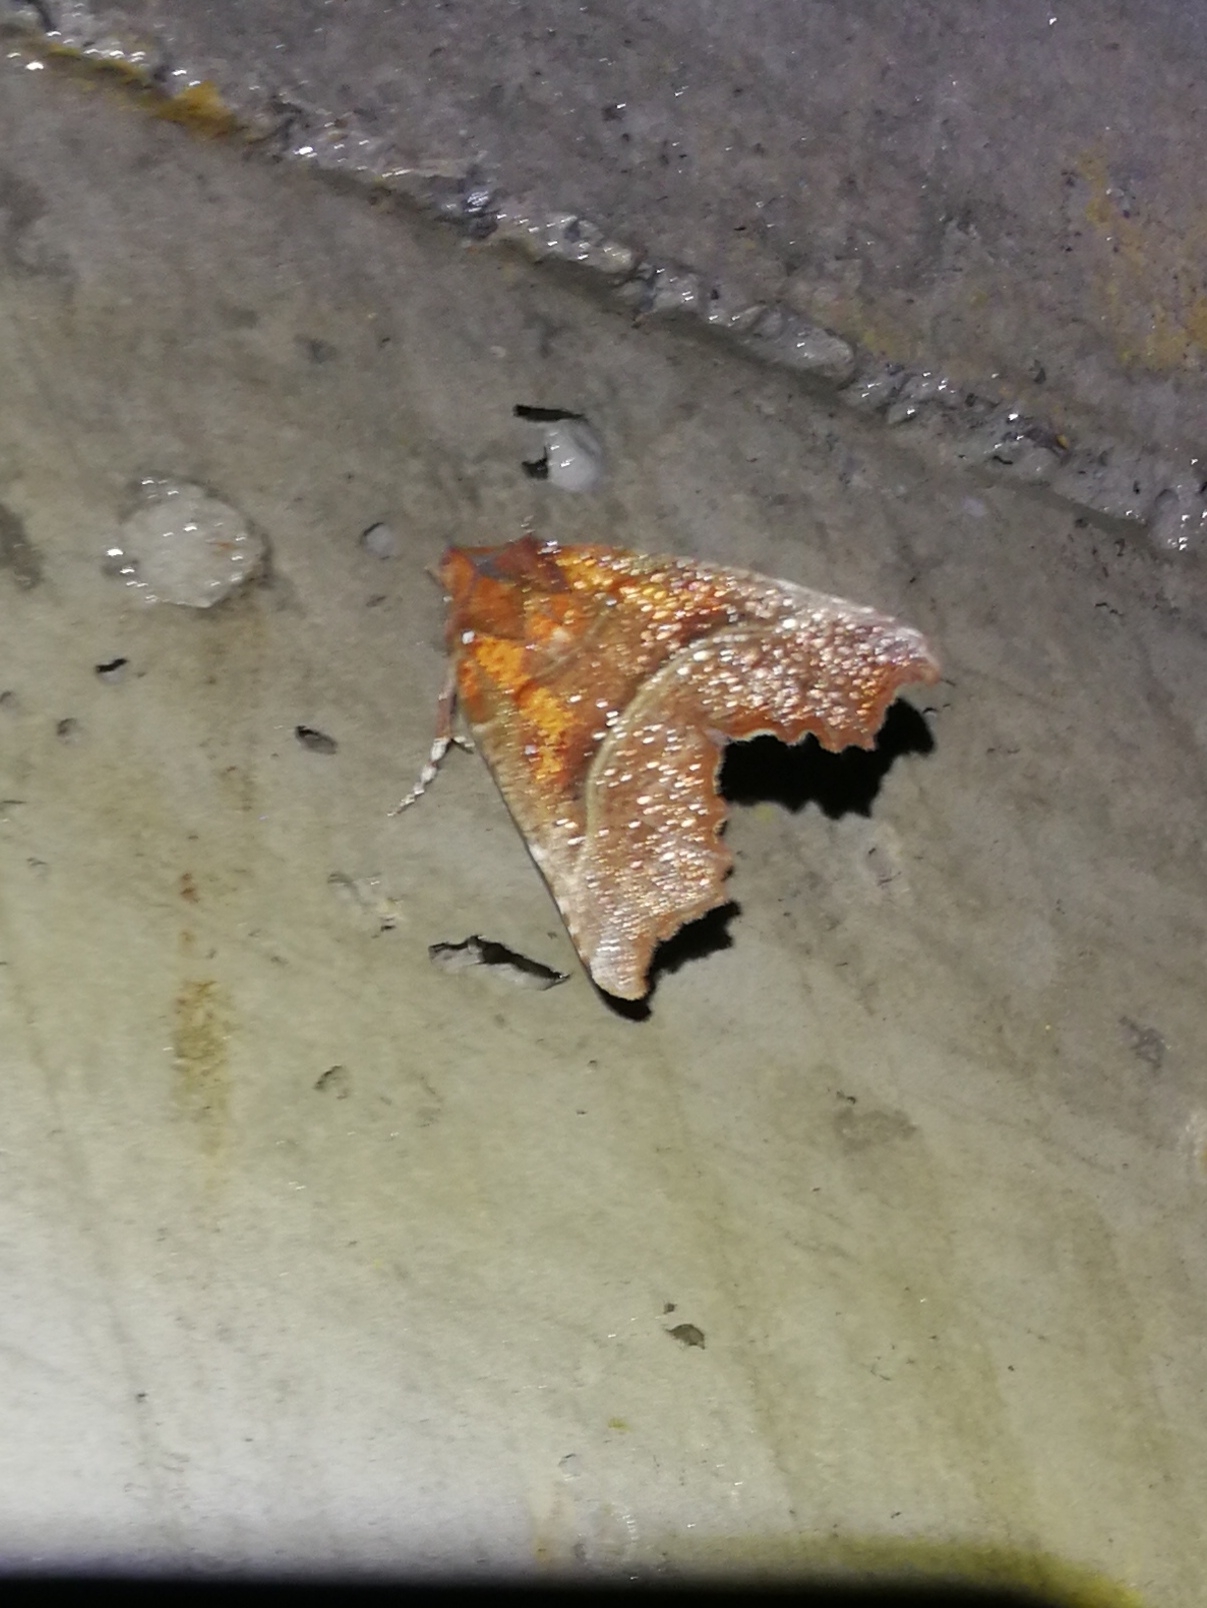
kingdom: Animalia
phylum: Arthropoda
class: Insecta
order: Lepidoptera
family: Erebidae
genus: Scoliopteryx
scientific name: Scoliopteryx libatrix
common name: Herald
